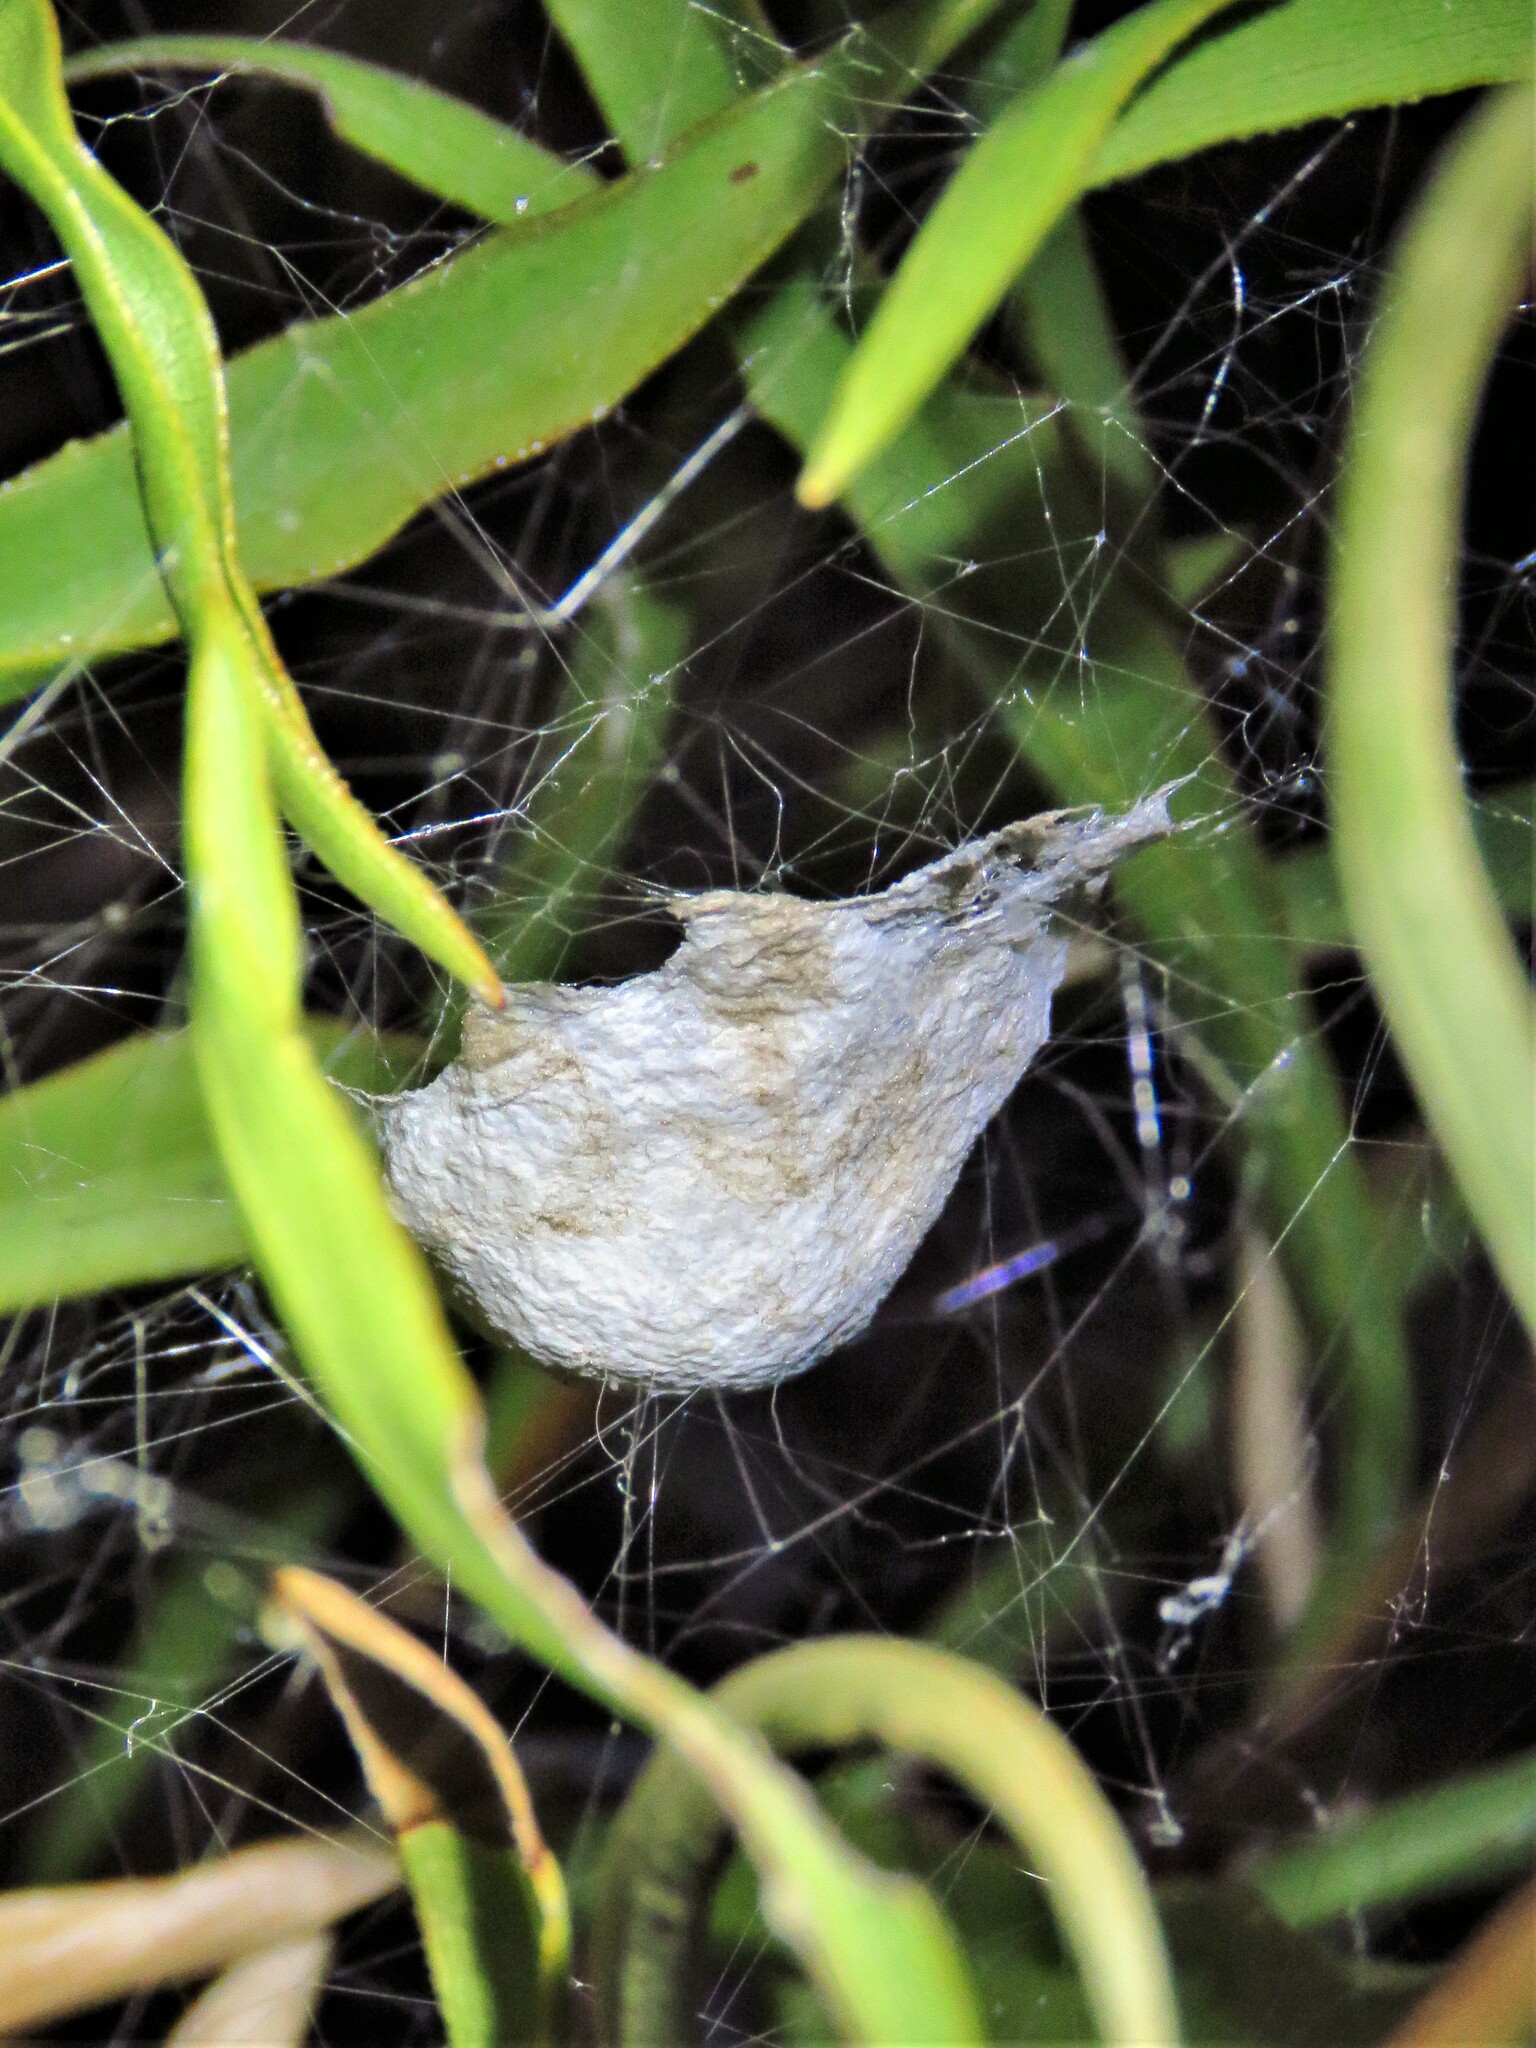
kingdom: Animalia
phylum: Arthropoda
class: Arachnida
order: Araneae
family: Araneidae
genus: Argiope
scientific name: Argiope trifasciata
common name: Banded garden spider
